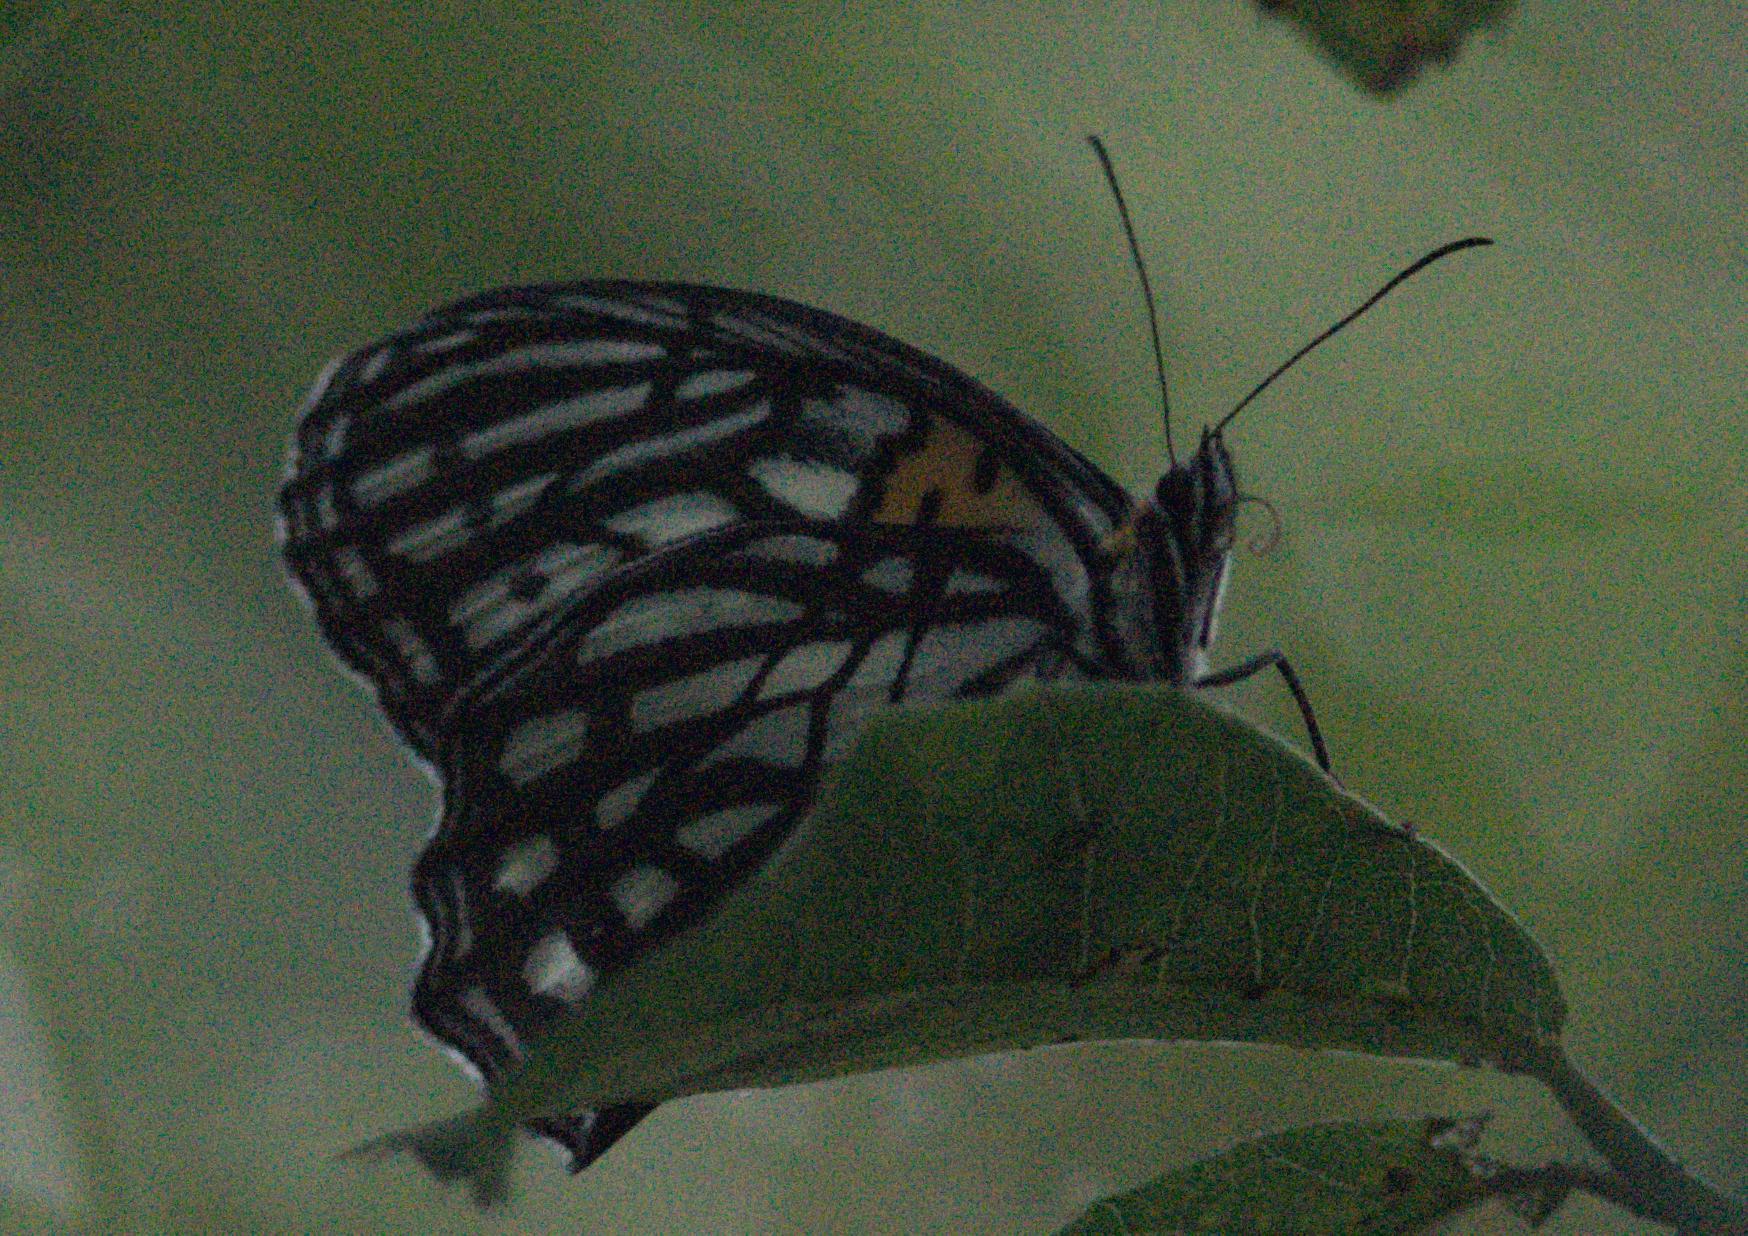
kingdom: Animalia
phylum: Arthropoda
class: Insecta
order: Lepidoptera
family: Nymphalidae
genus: Orinoma
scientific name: Orinoma damaris
